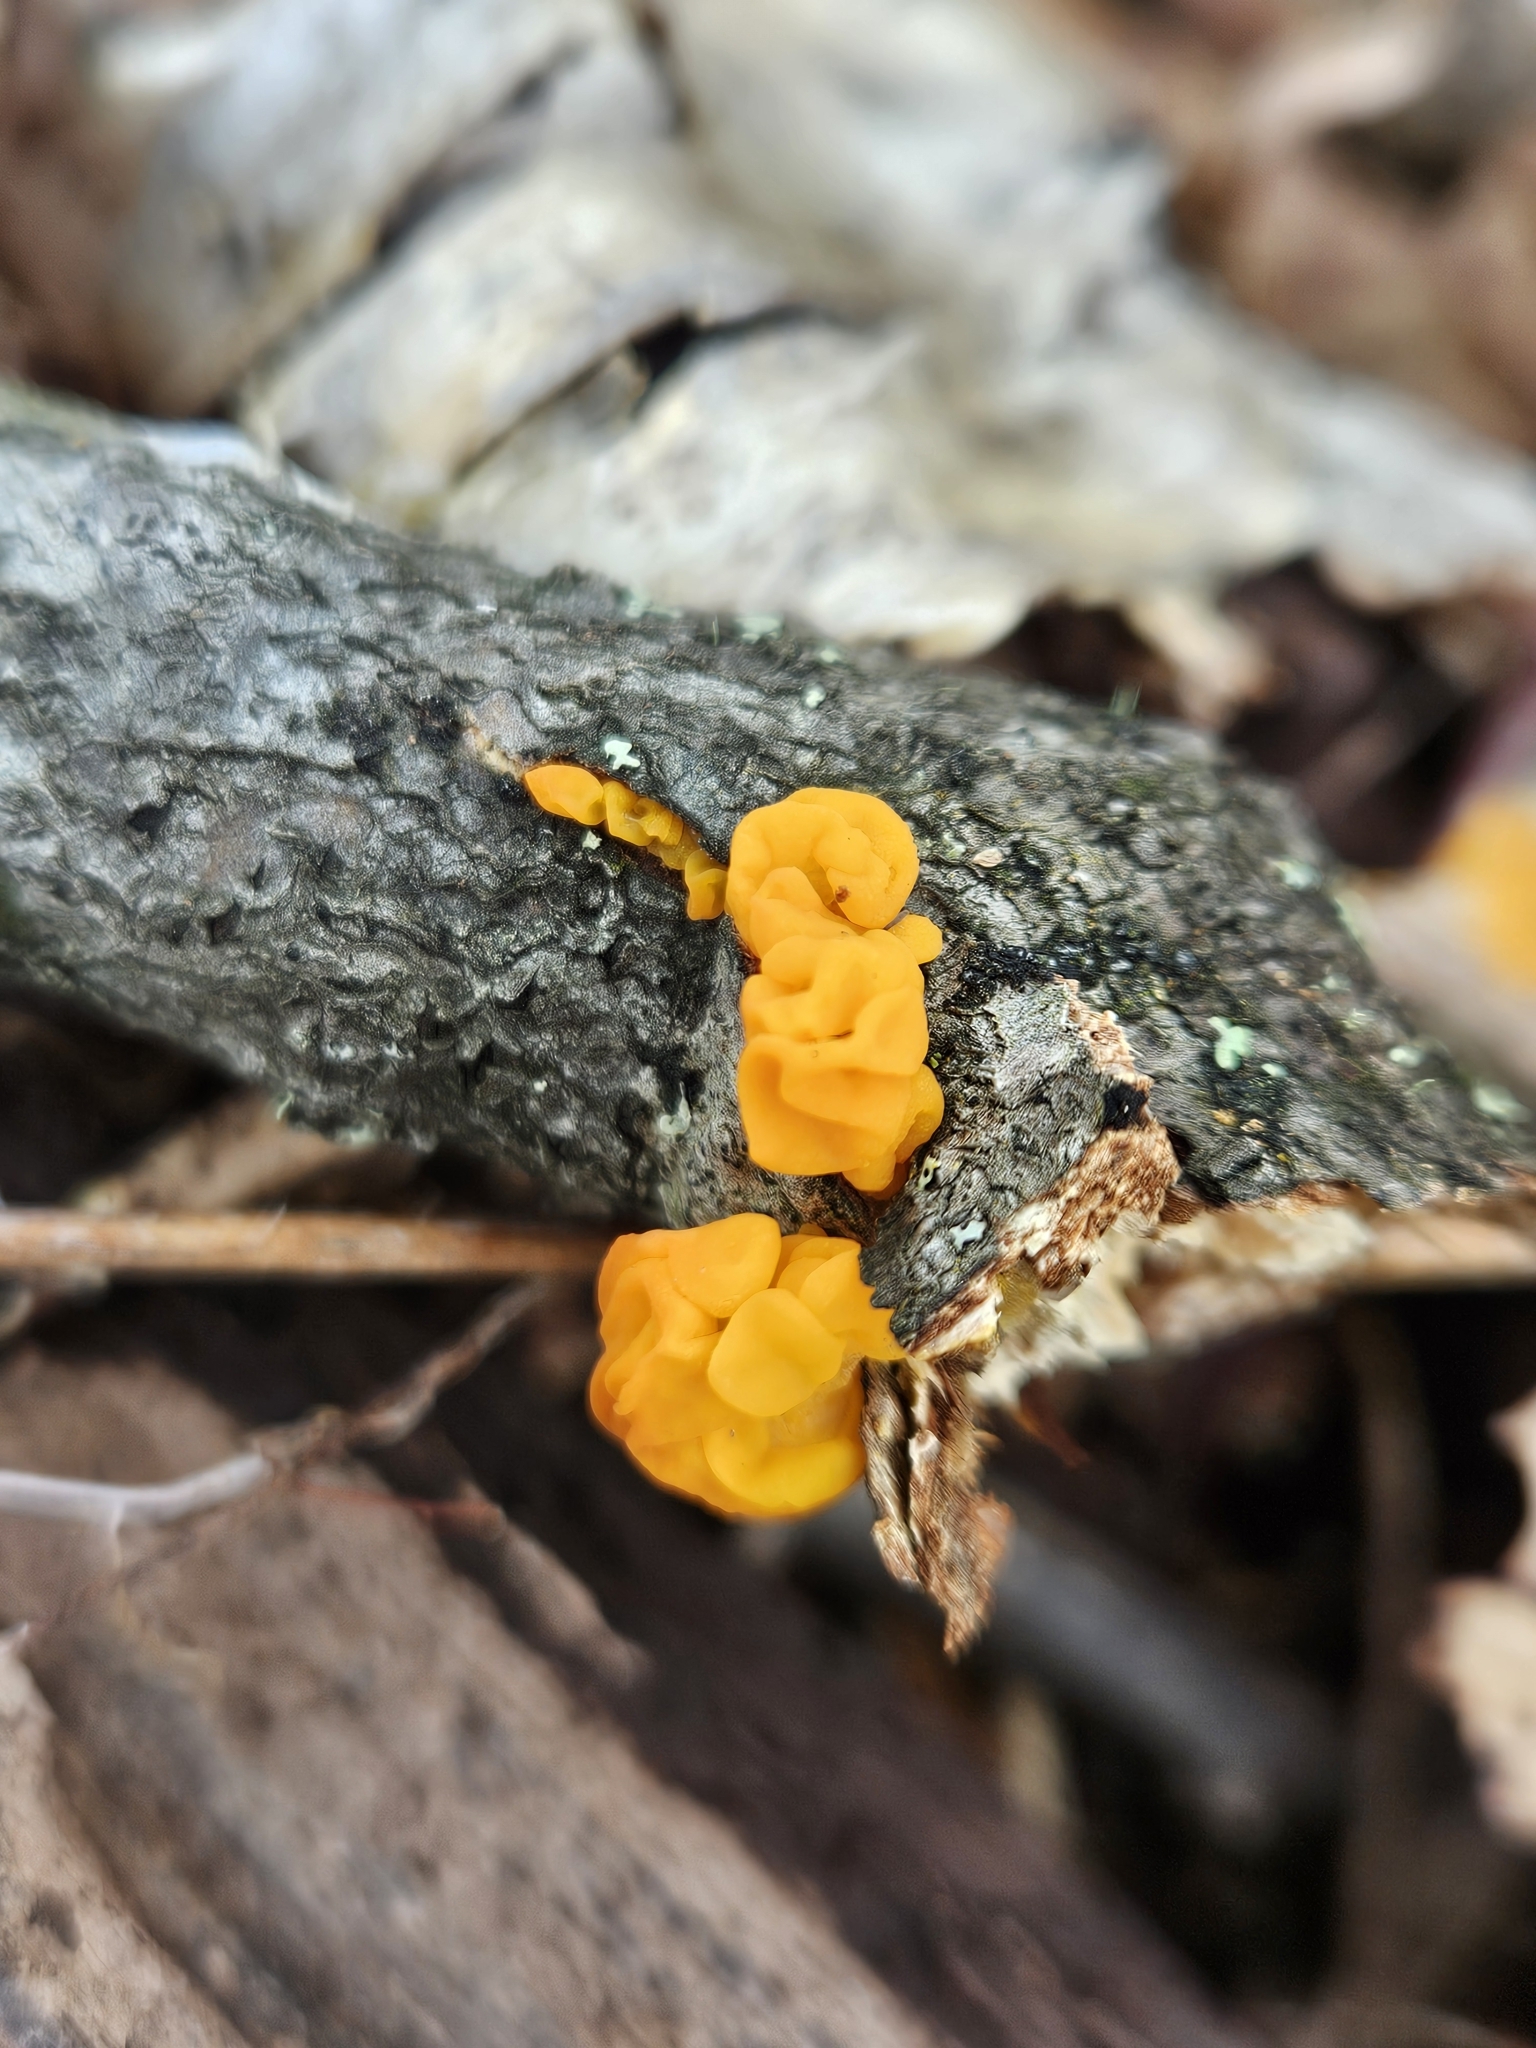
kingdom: Fungi
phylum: Basidiomycota
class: Tremellomycetes
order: Tremellales
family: Tremellaceae
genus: Tremella
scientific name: Tremella mesenterica
